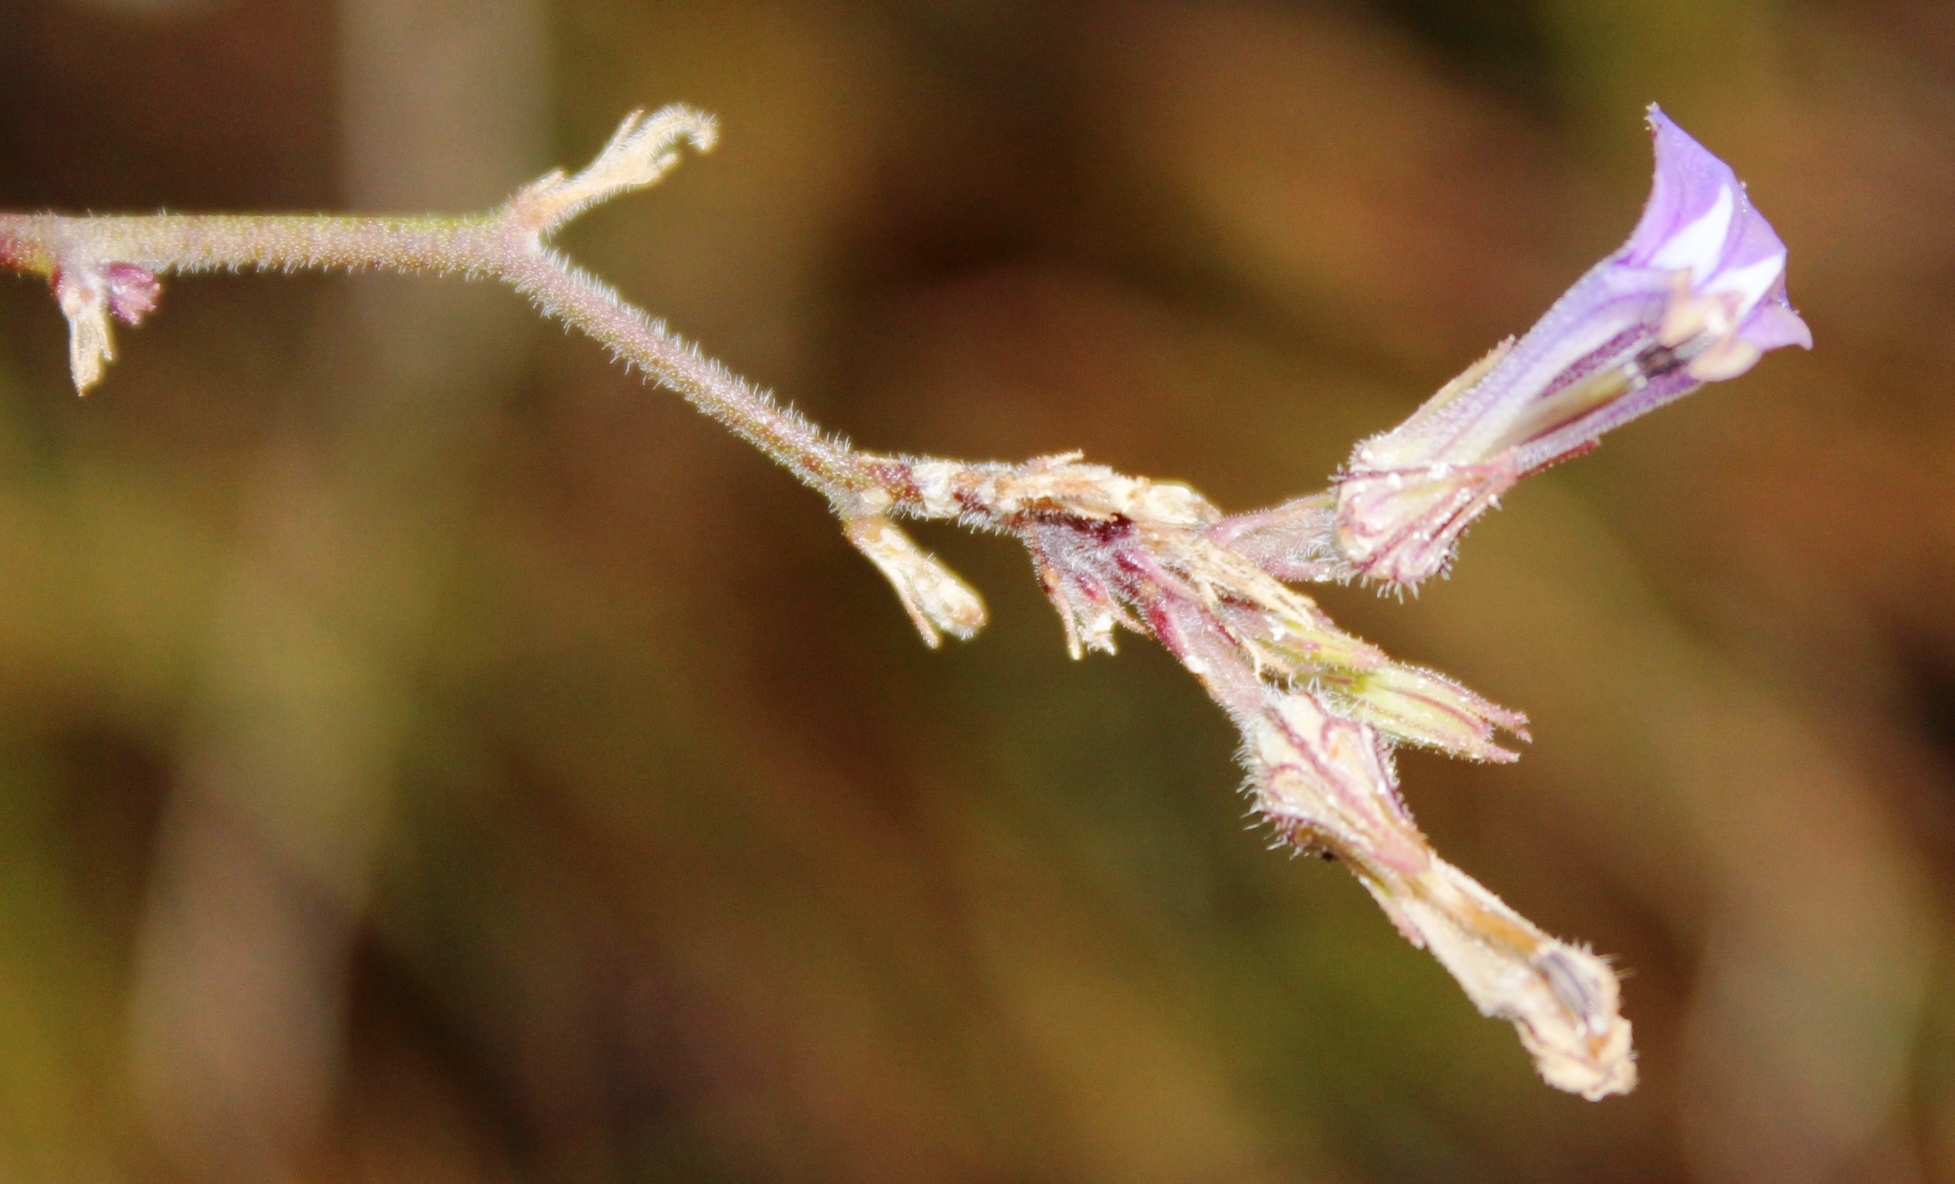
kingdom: Plantae
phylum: Tracheophyta
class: Magnoliopsida
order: Asterales
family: Campanulaceae
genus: Lobelia
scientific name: Lobelia linearis
